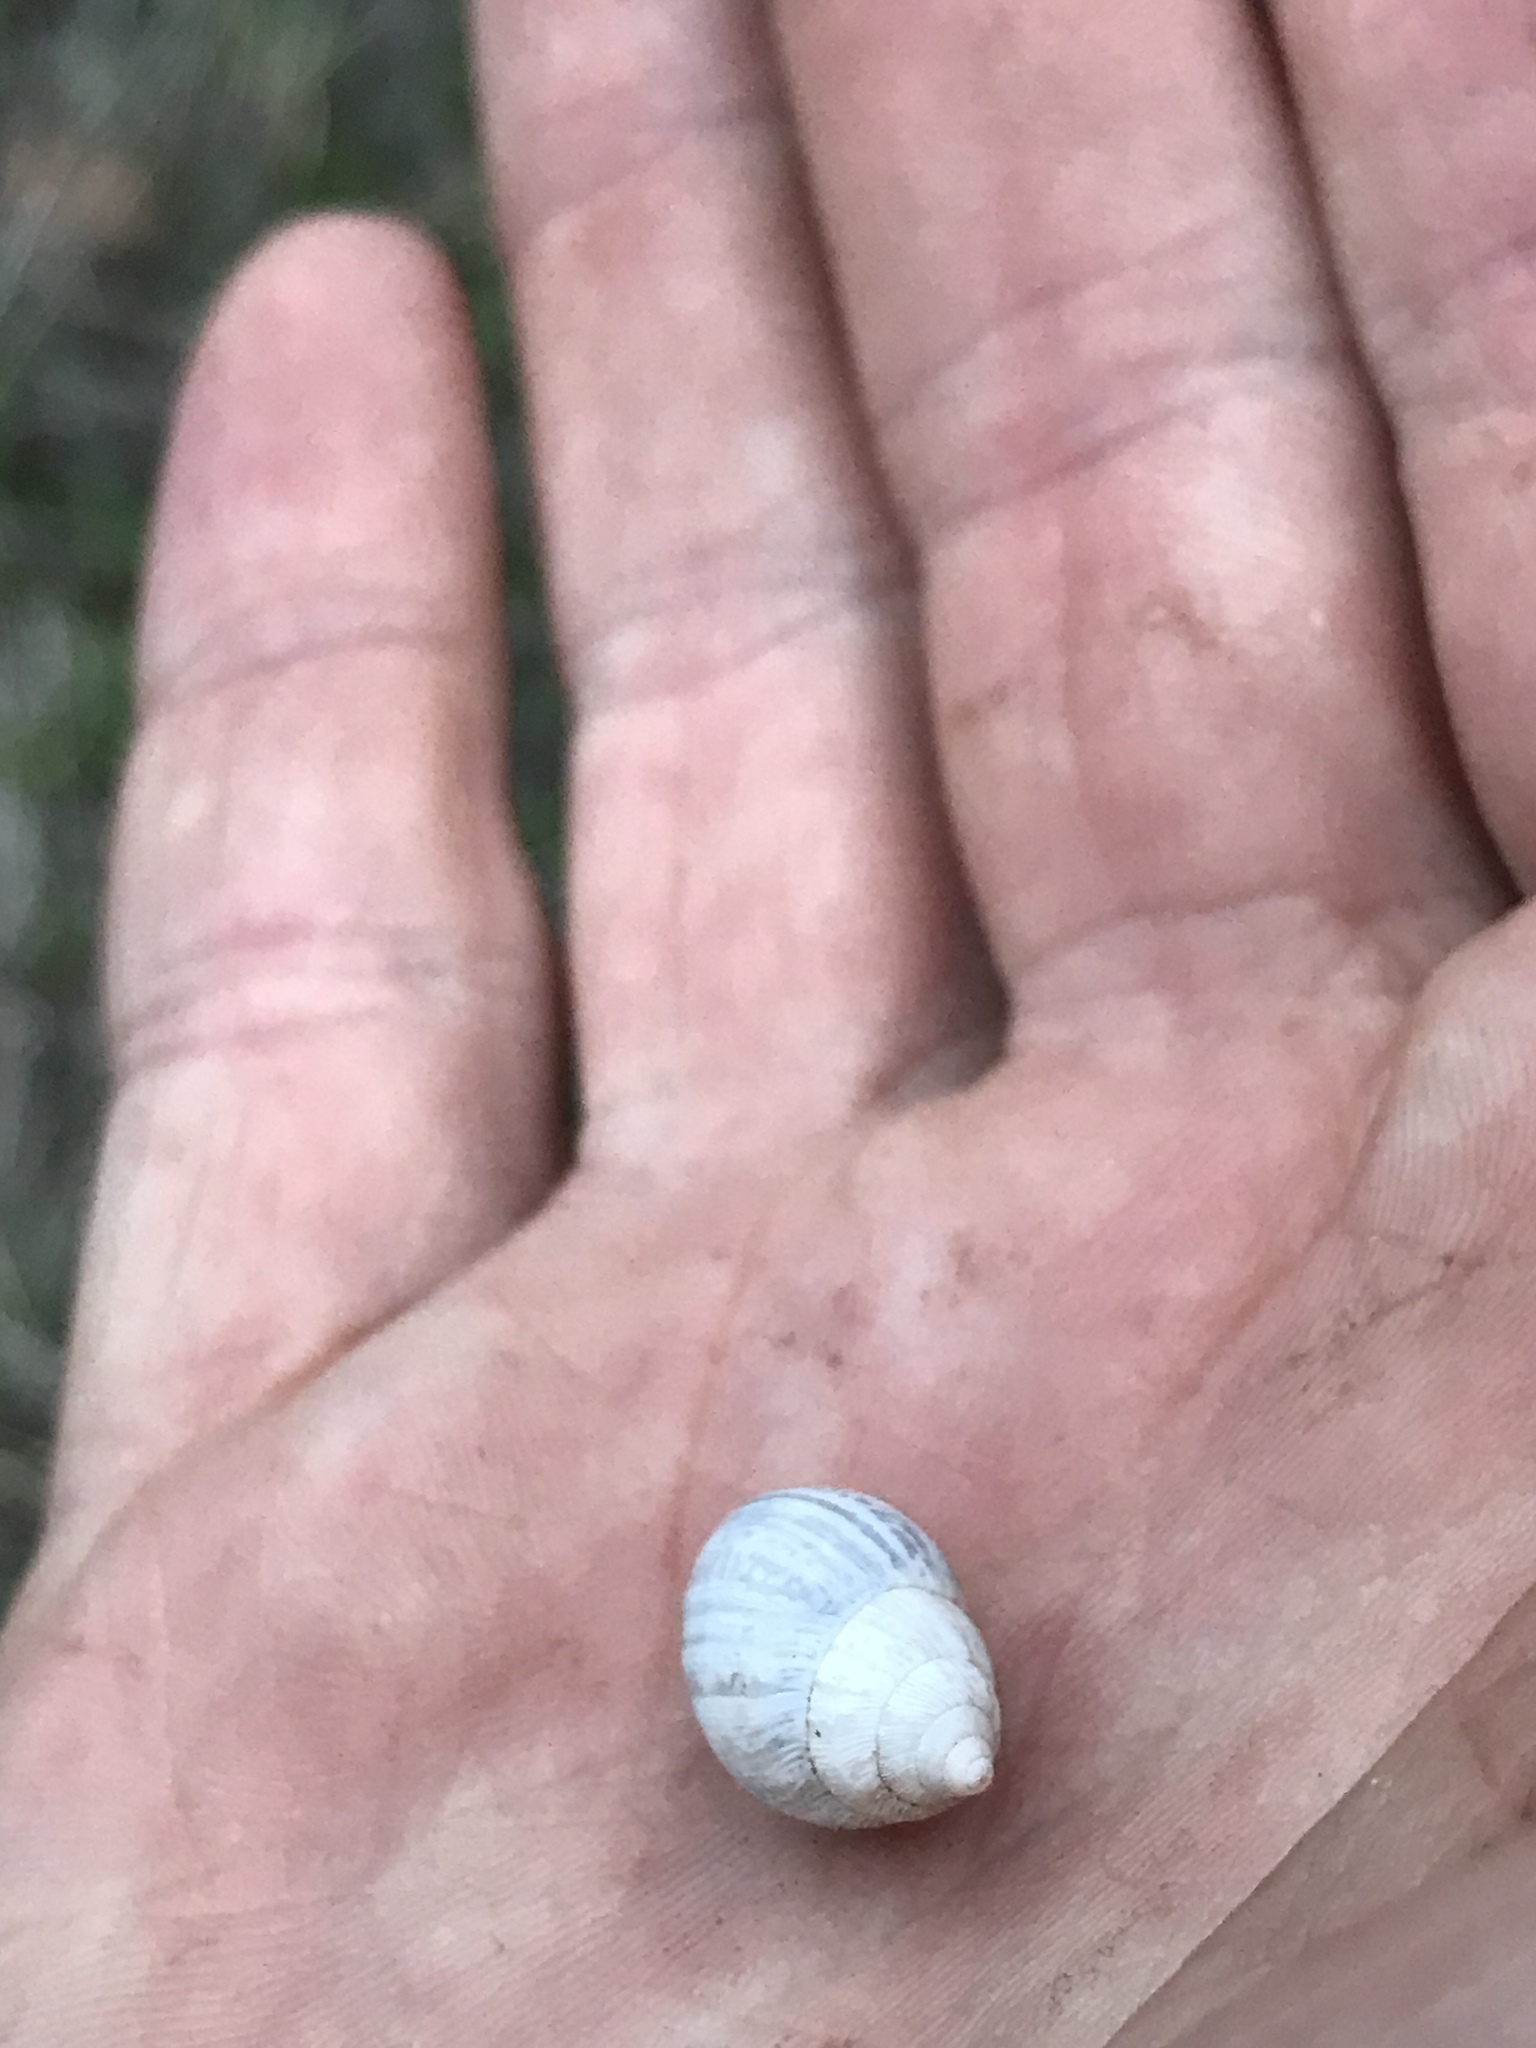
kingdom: Animalia
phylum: Mollusca
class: Gastropoda
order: Stylommatophora
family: Bulimulidae
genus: Rabdotus
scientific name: Rabdotus dealbatus
